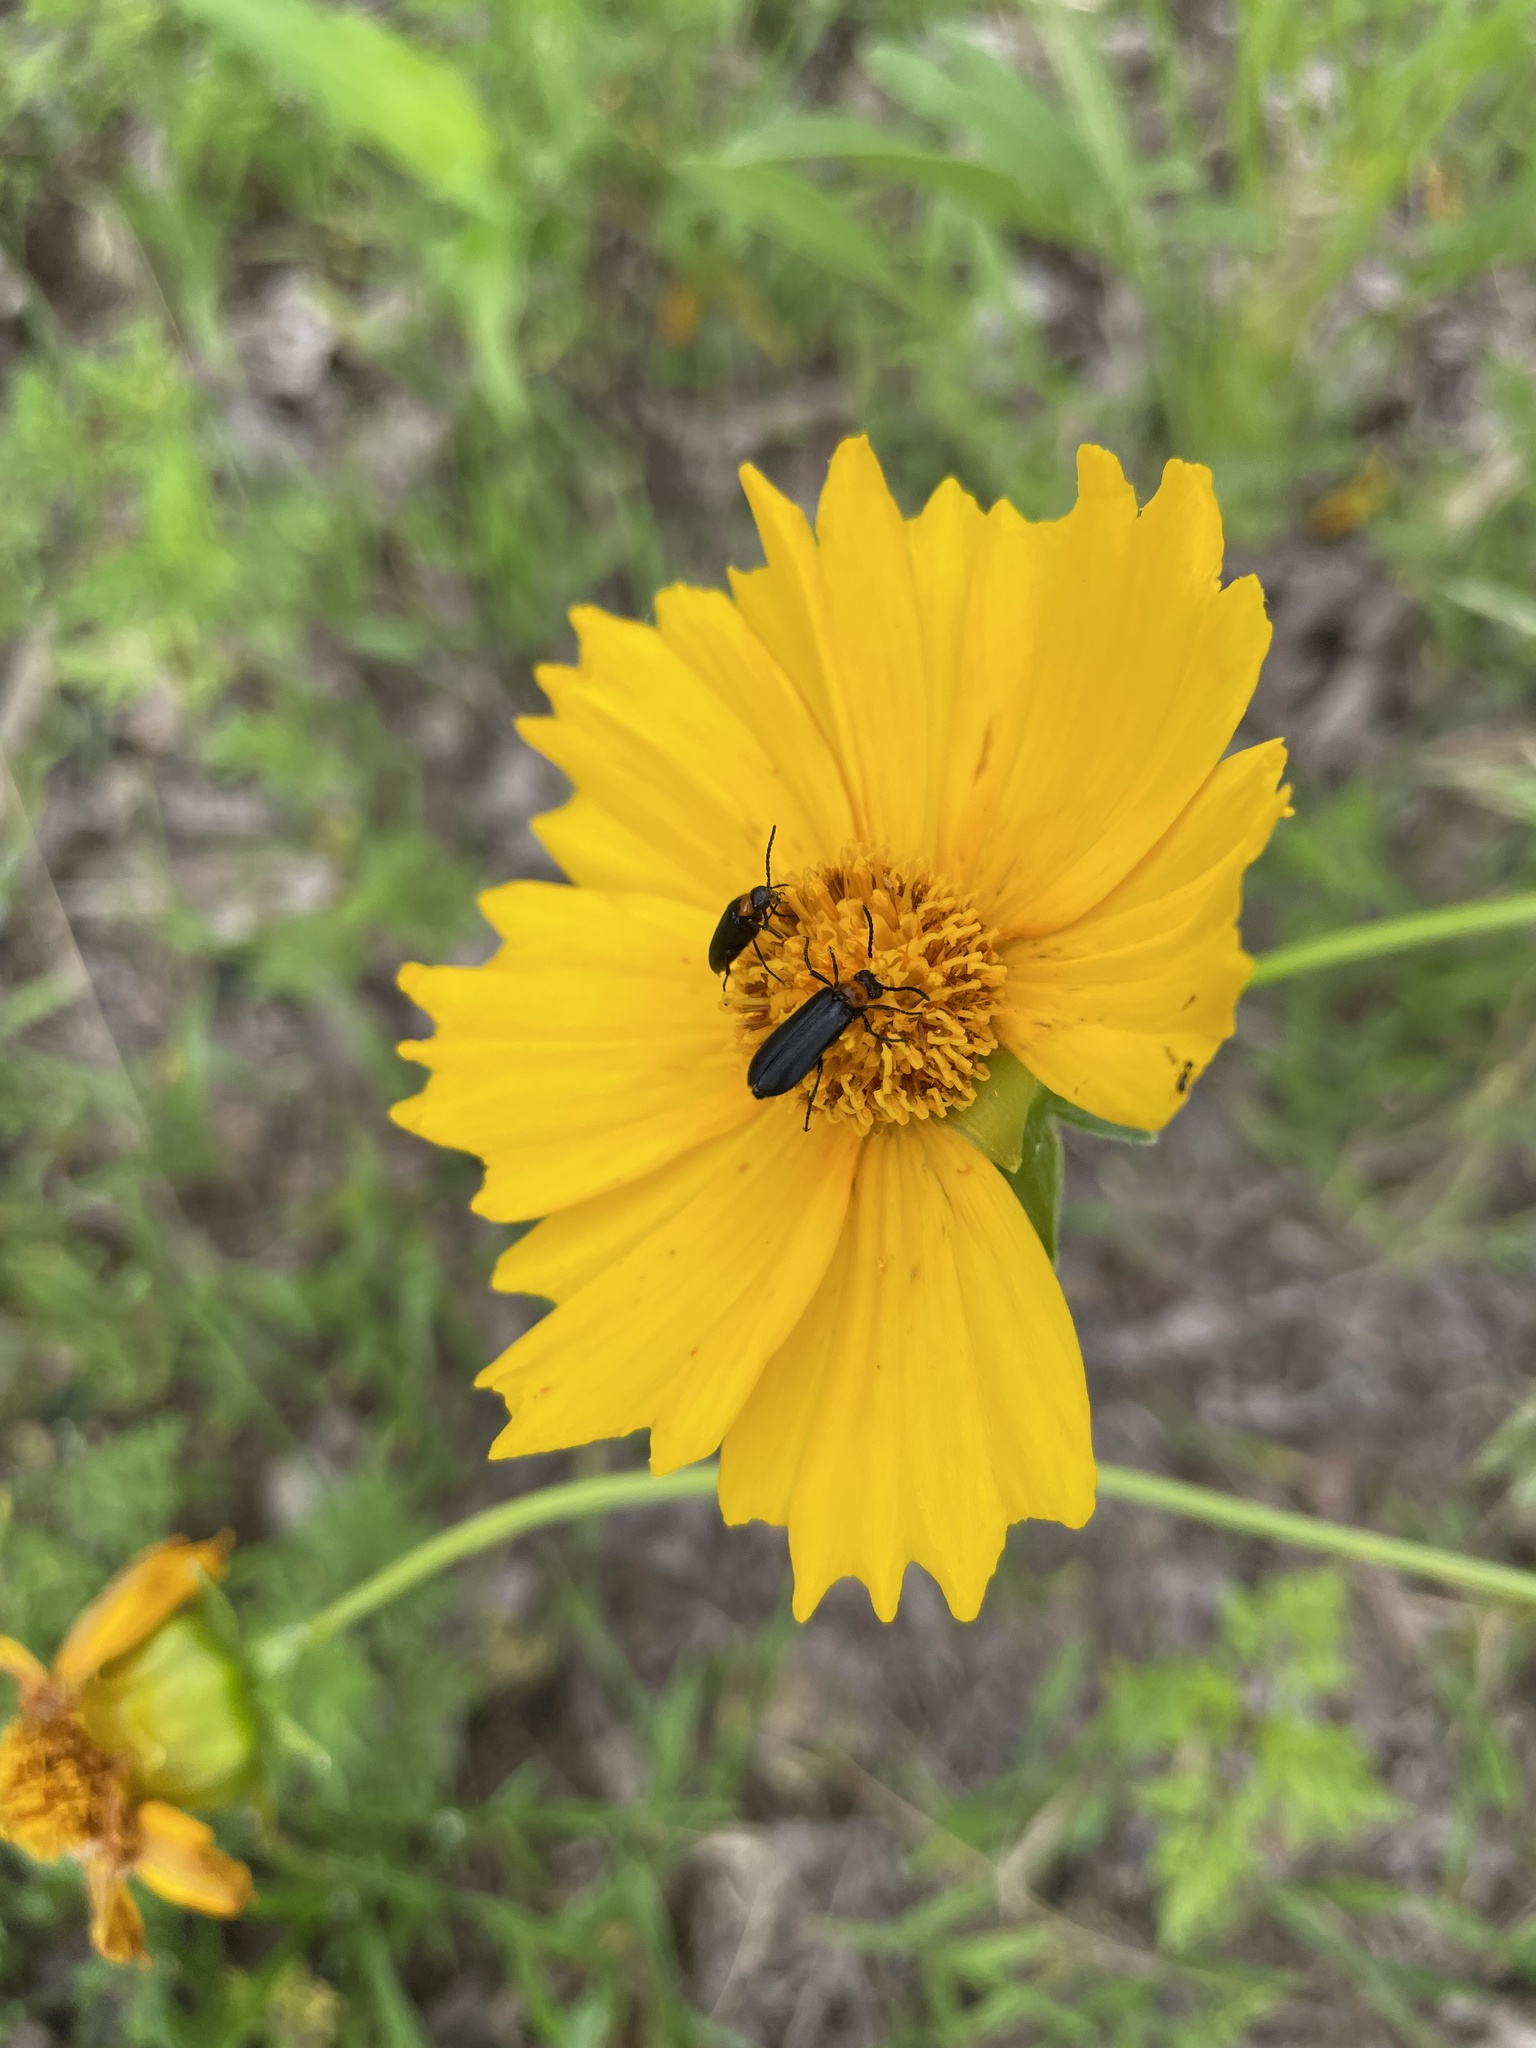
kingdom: Animalia
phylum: Arthropoda
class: Insecta
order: Coleoptera
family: Meloidae
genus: Nemognatha
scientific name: Nemognatha nemorensis
